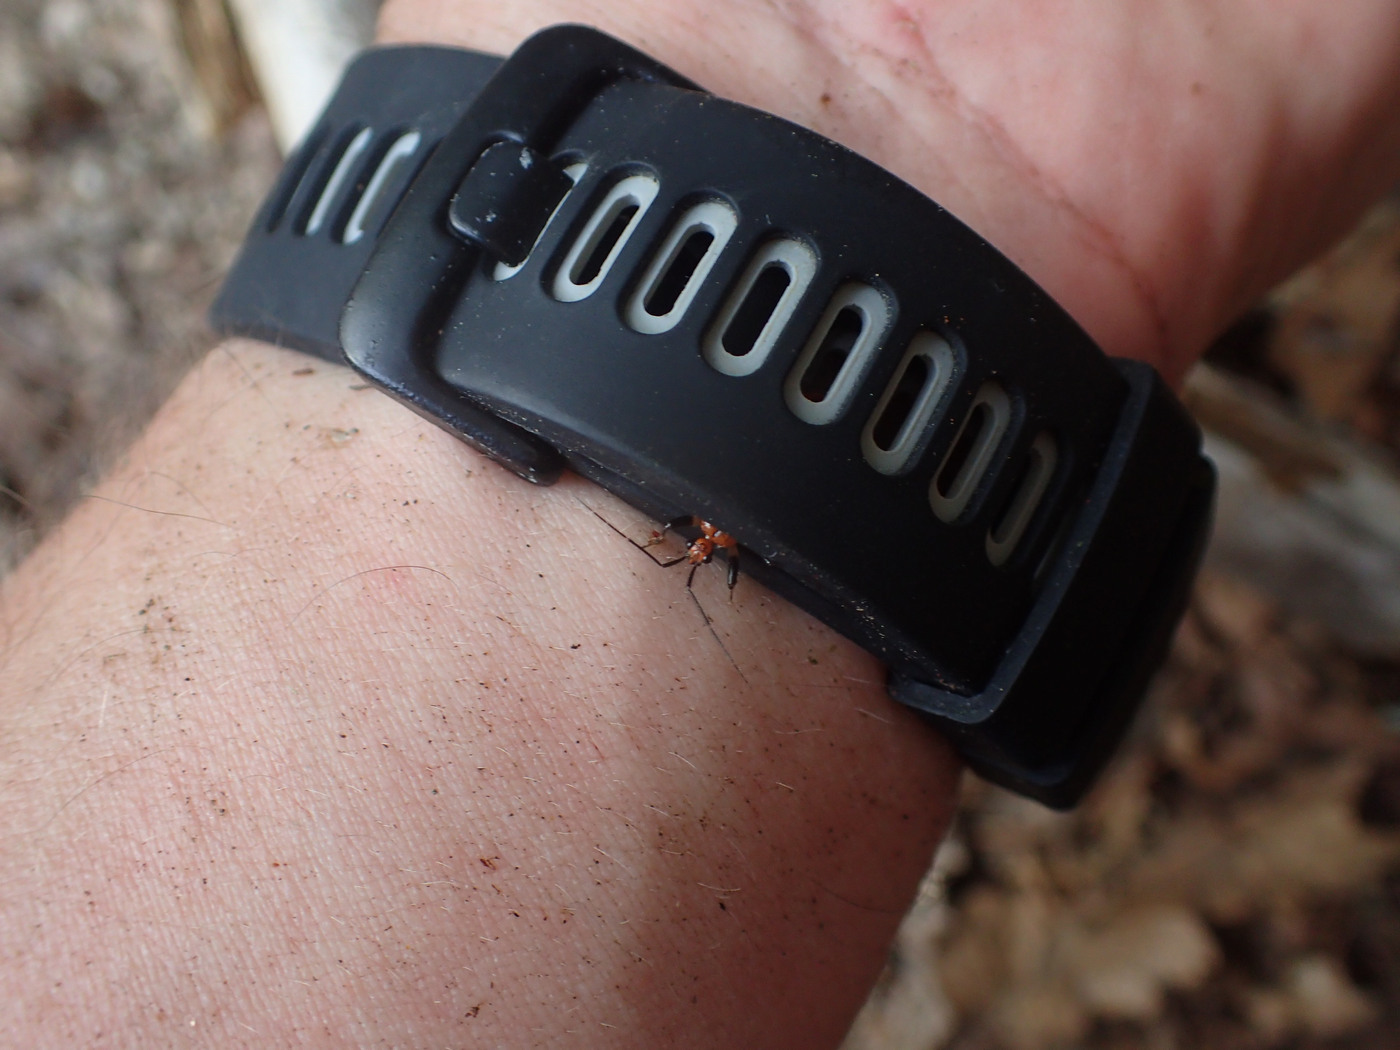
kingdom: Animalia
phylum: Arthropoda
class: Insecta
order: Hemiptera
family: Reduviidae
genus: Rhiginia
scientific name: Rhiginia cruciata
